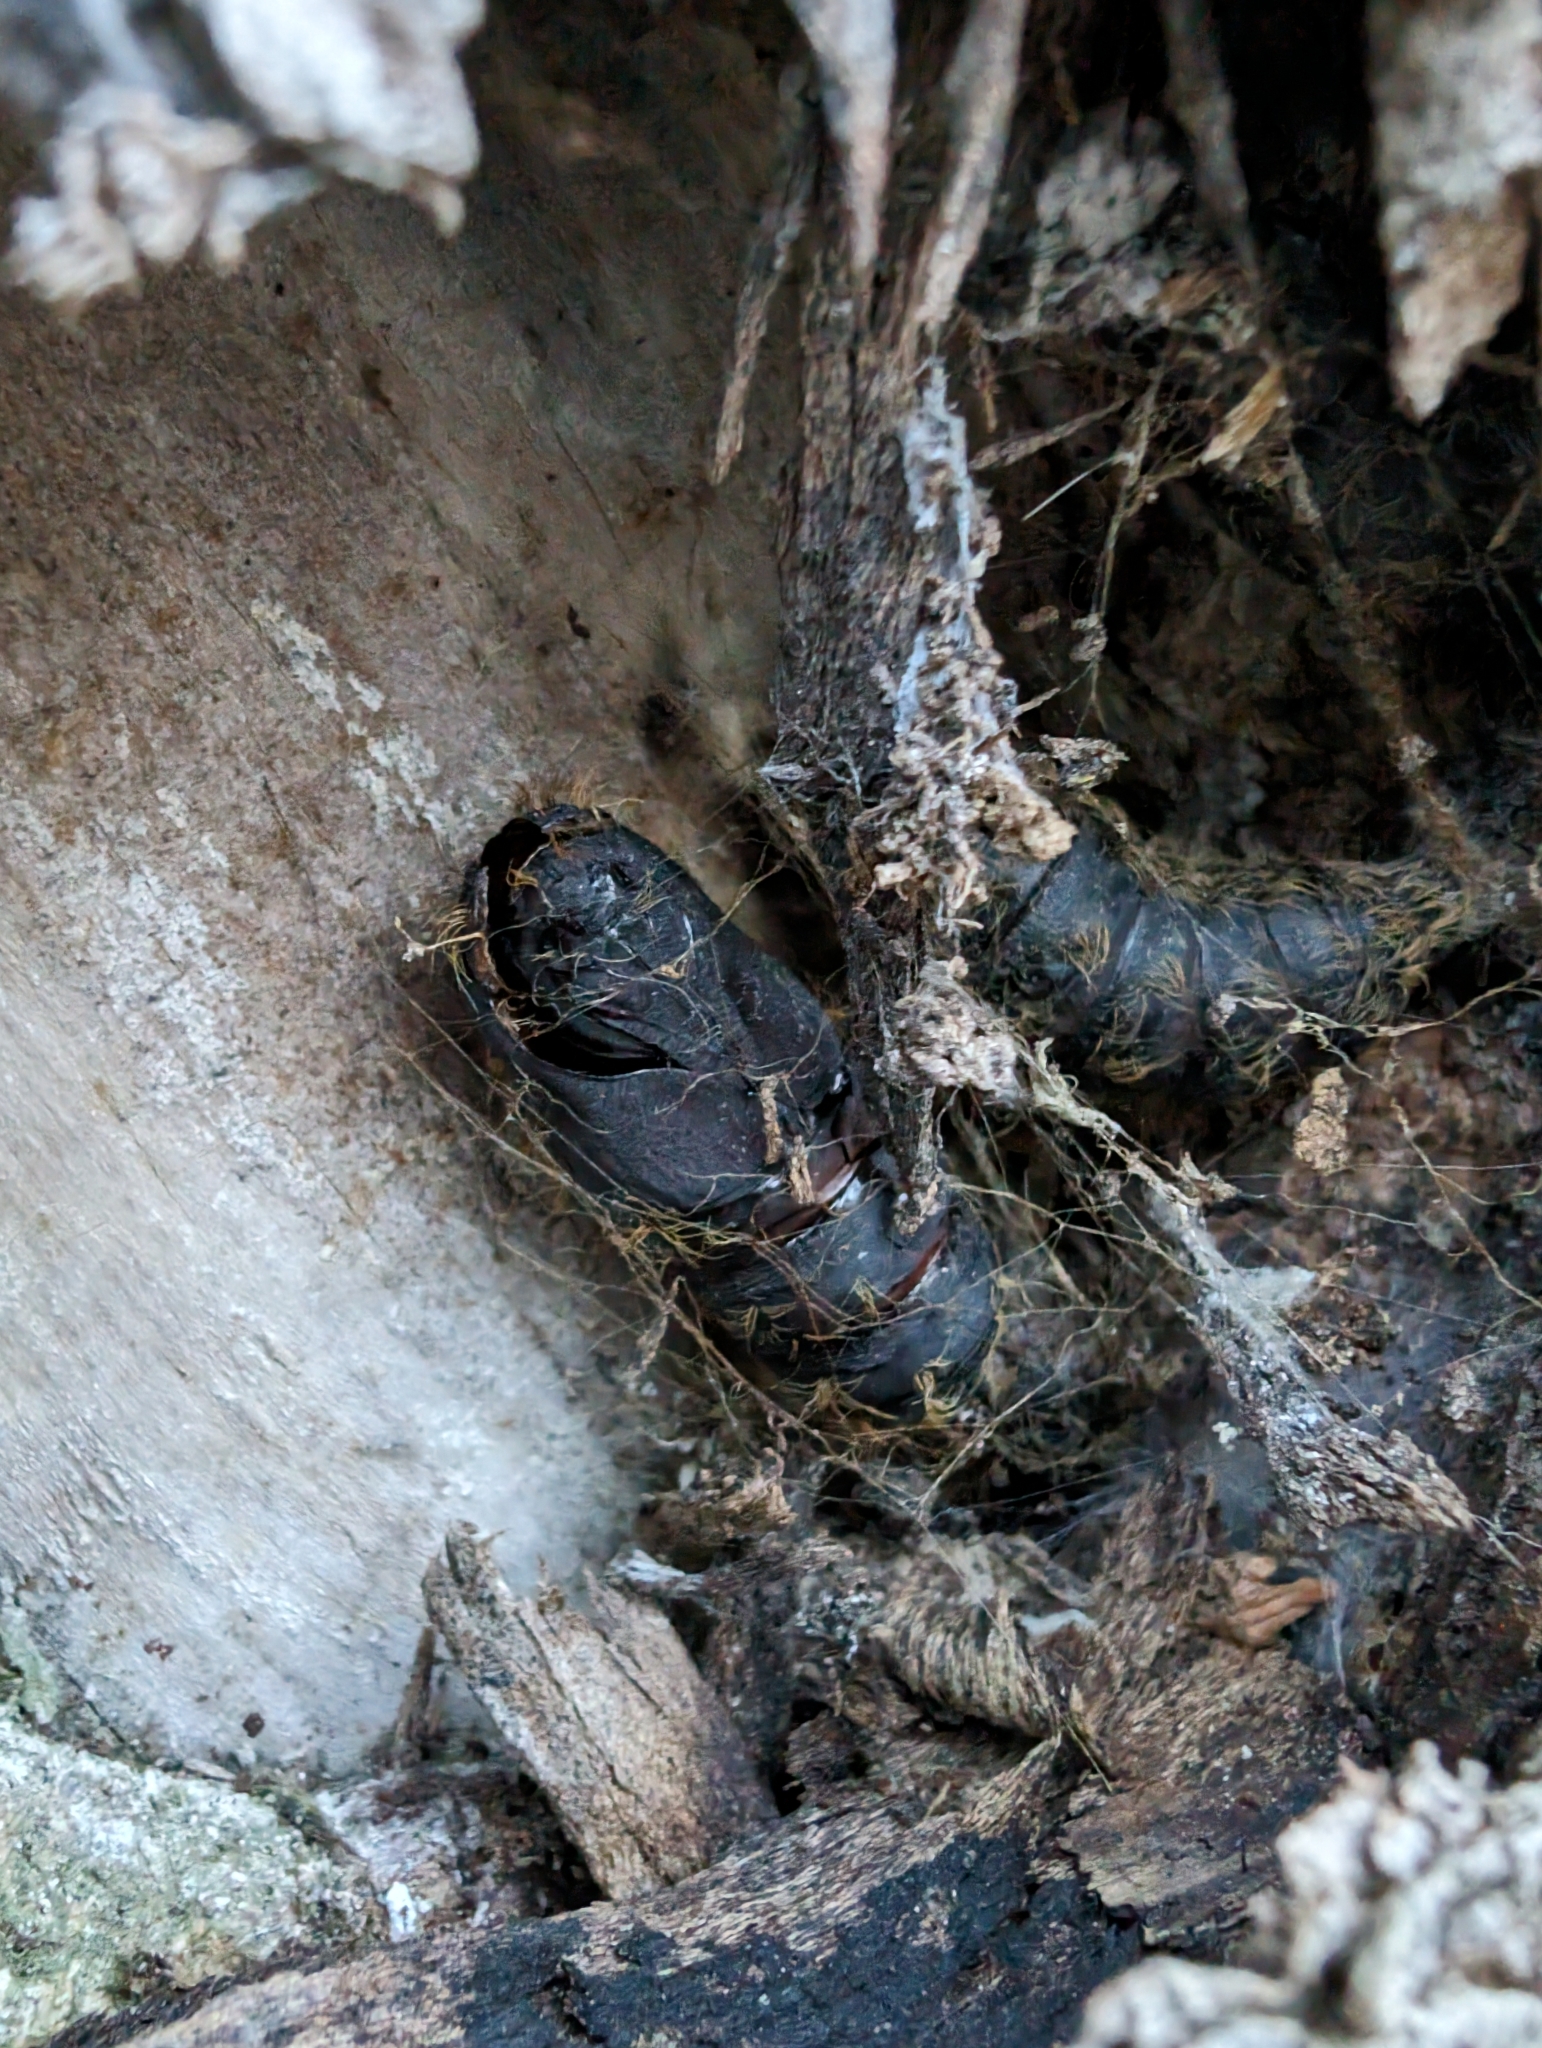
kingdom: Animalia
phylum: Arthropoda
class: Insecta
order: Lepidoptera
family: Erebidae
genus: Lymantria
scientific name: Lymantria dispar
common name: Gypsy moth
